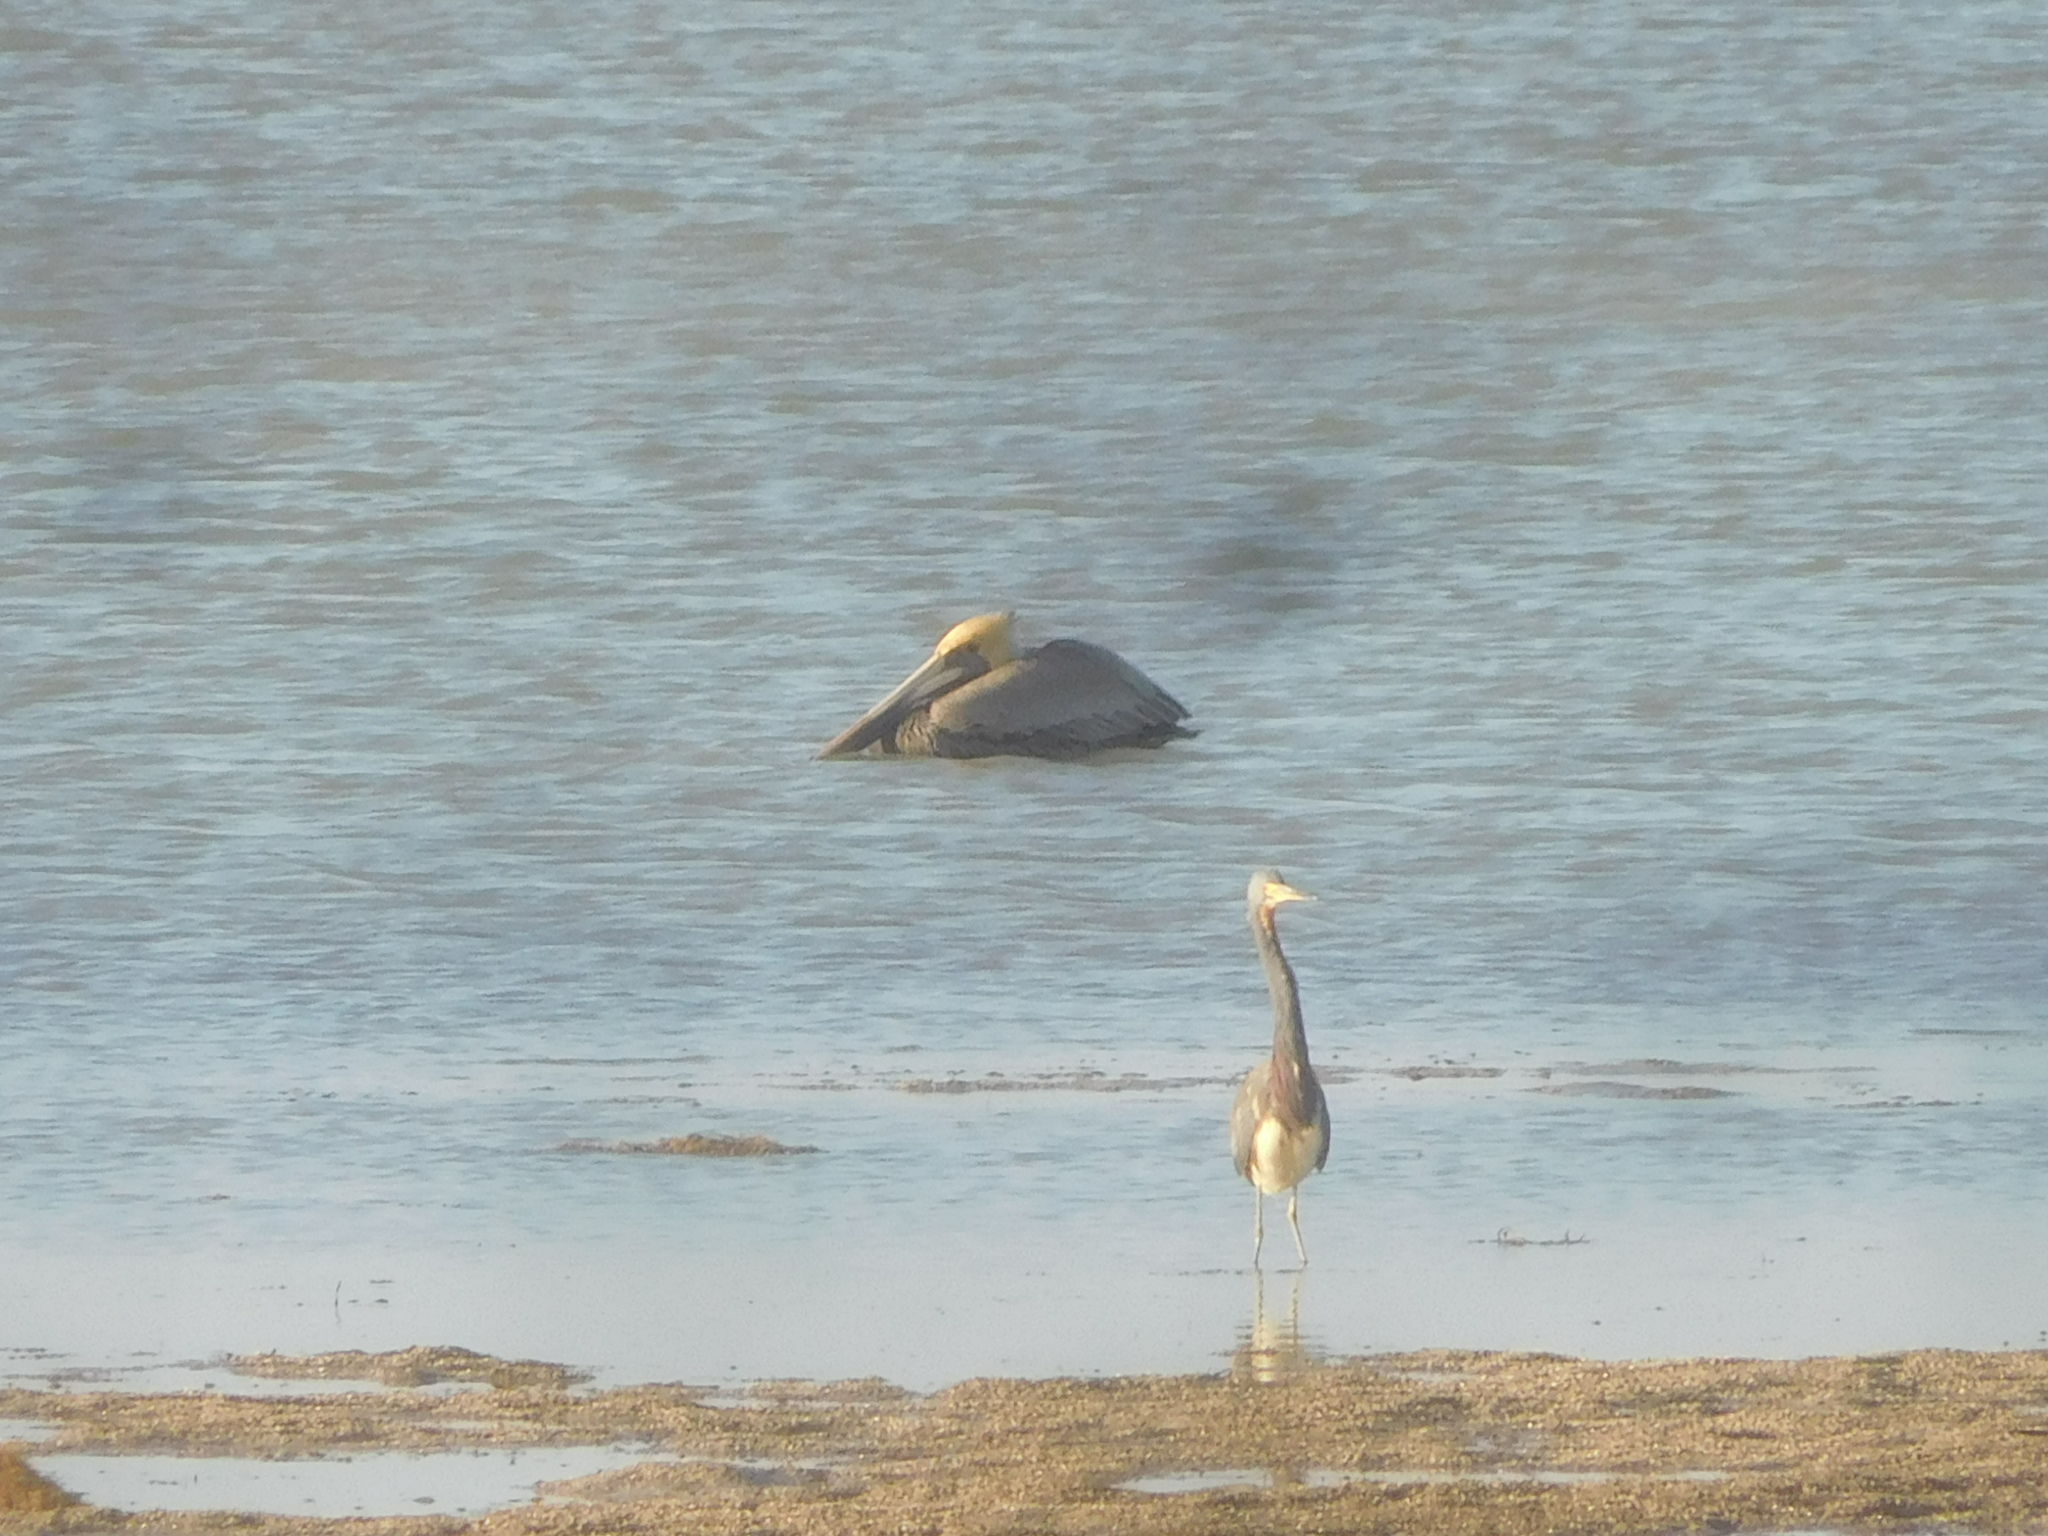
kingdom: Animalia
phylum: Chordata
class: Aves
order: Pelecaniformes
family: Ardeidae
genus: Egretta
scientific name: Egretta tricolor
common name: Tricolored heron
